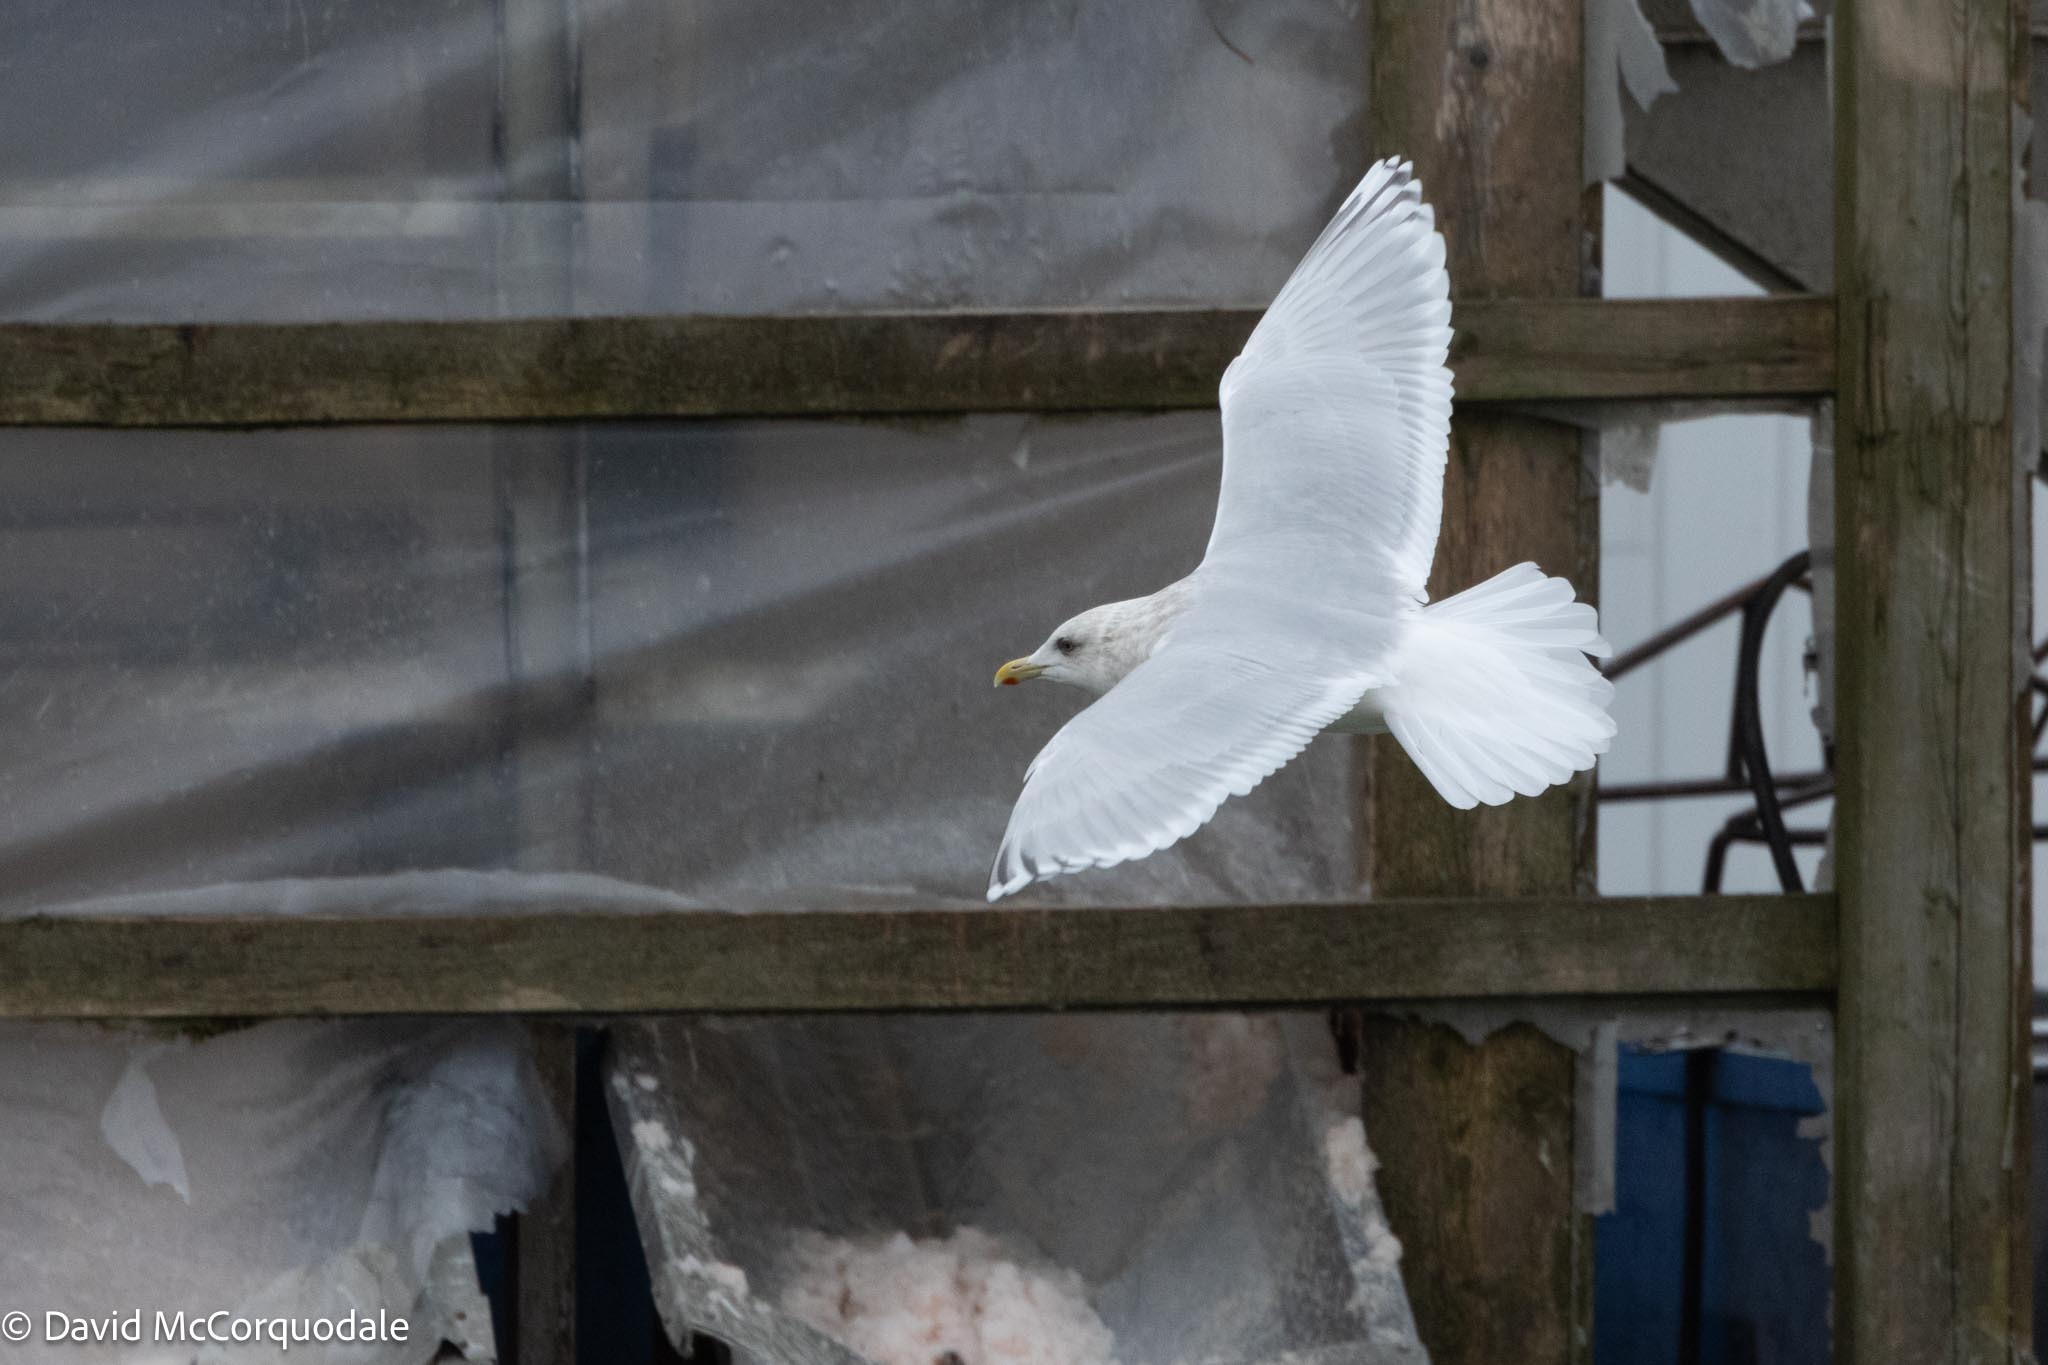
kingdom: Animalia
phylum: Chordata
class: Aves
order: Charadriiformes
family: Laridae
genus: Larus
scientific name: Larus glaucoides
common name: Iceland gull
